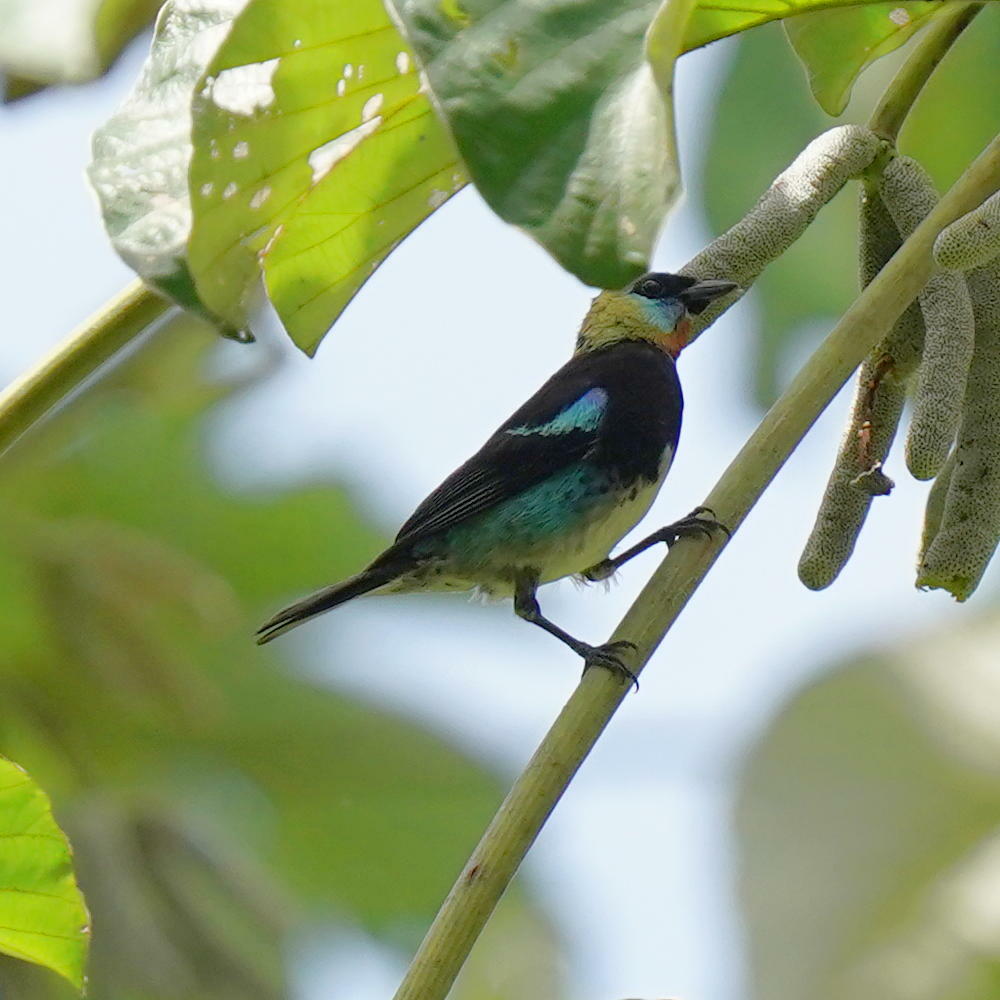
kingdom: Animalia
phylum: Chordata
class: Aves
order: Passeriformes
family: Thraupidae
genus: Stilpnia
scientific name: Stilpnia larvata
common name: Golden-hooded tanager
